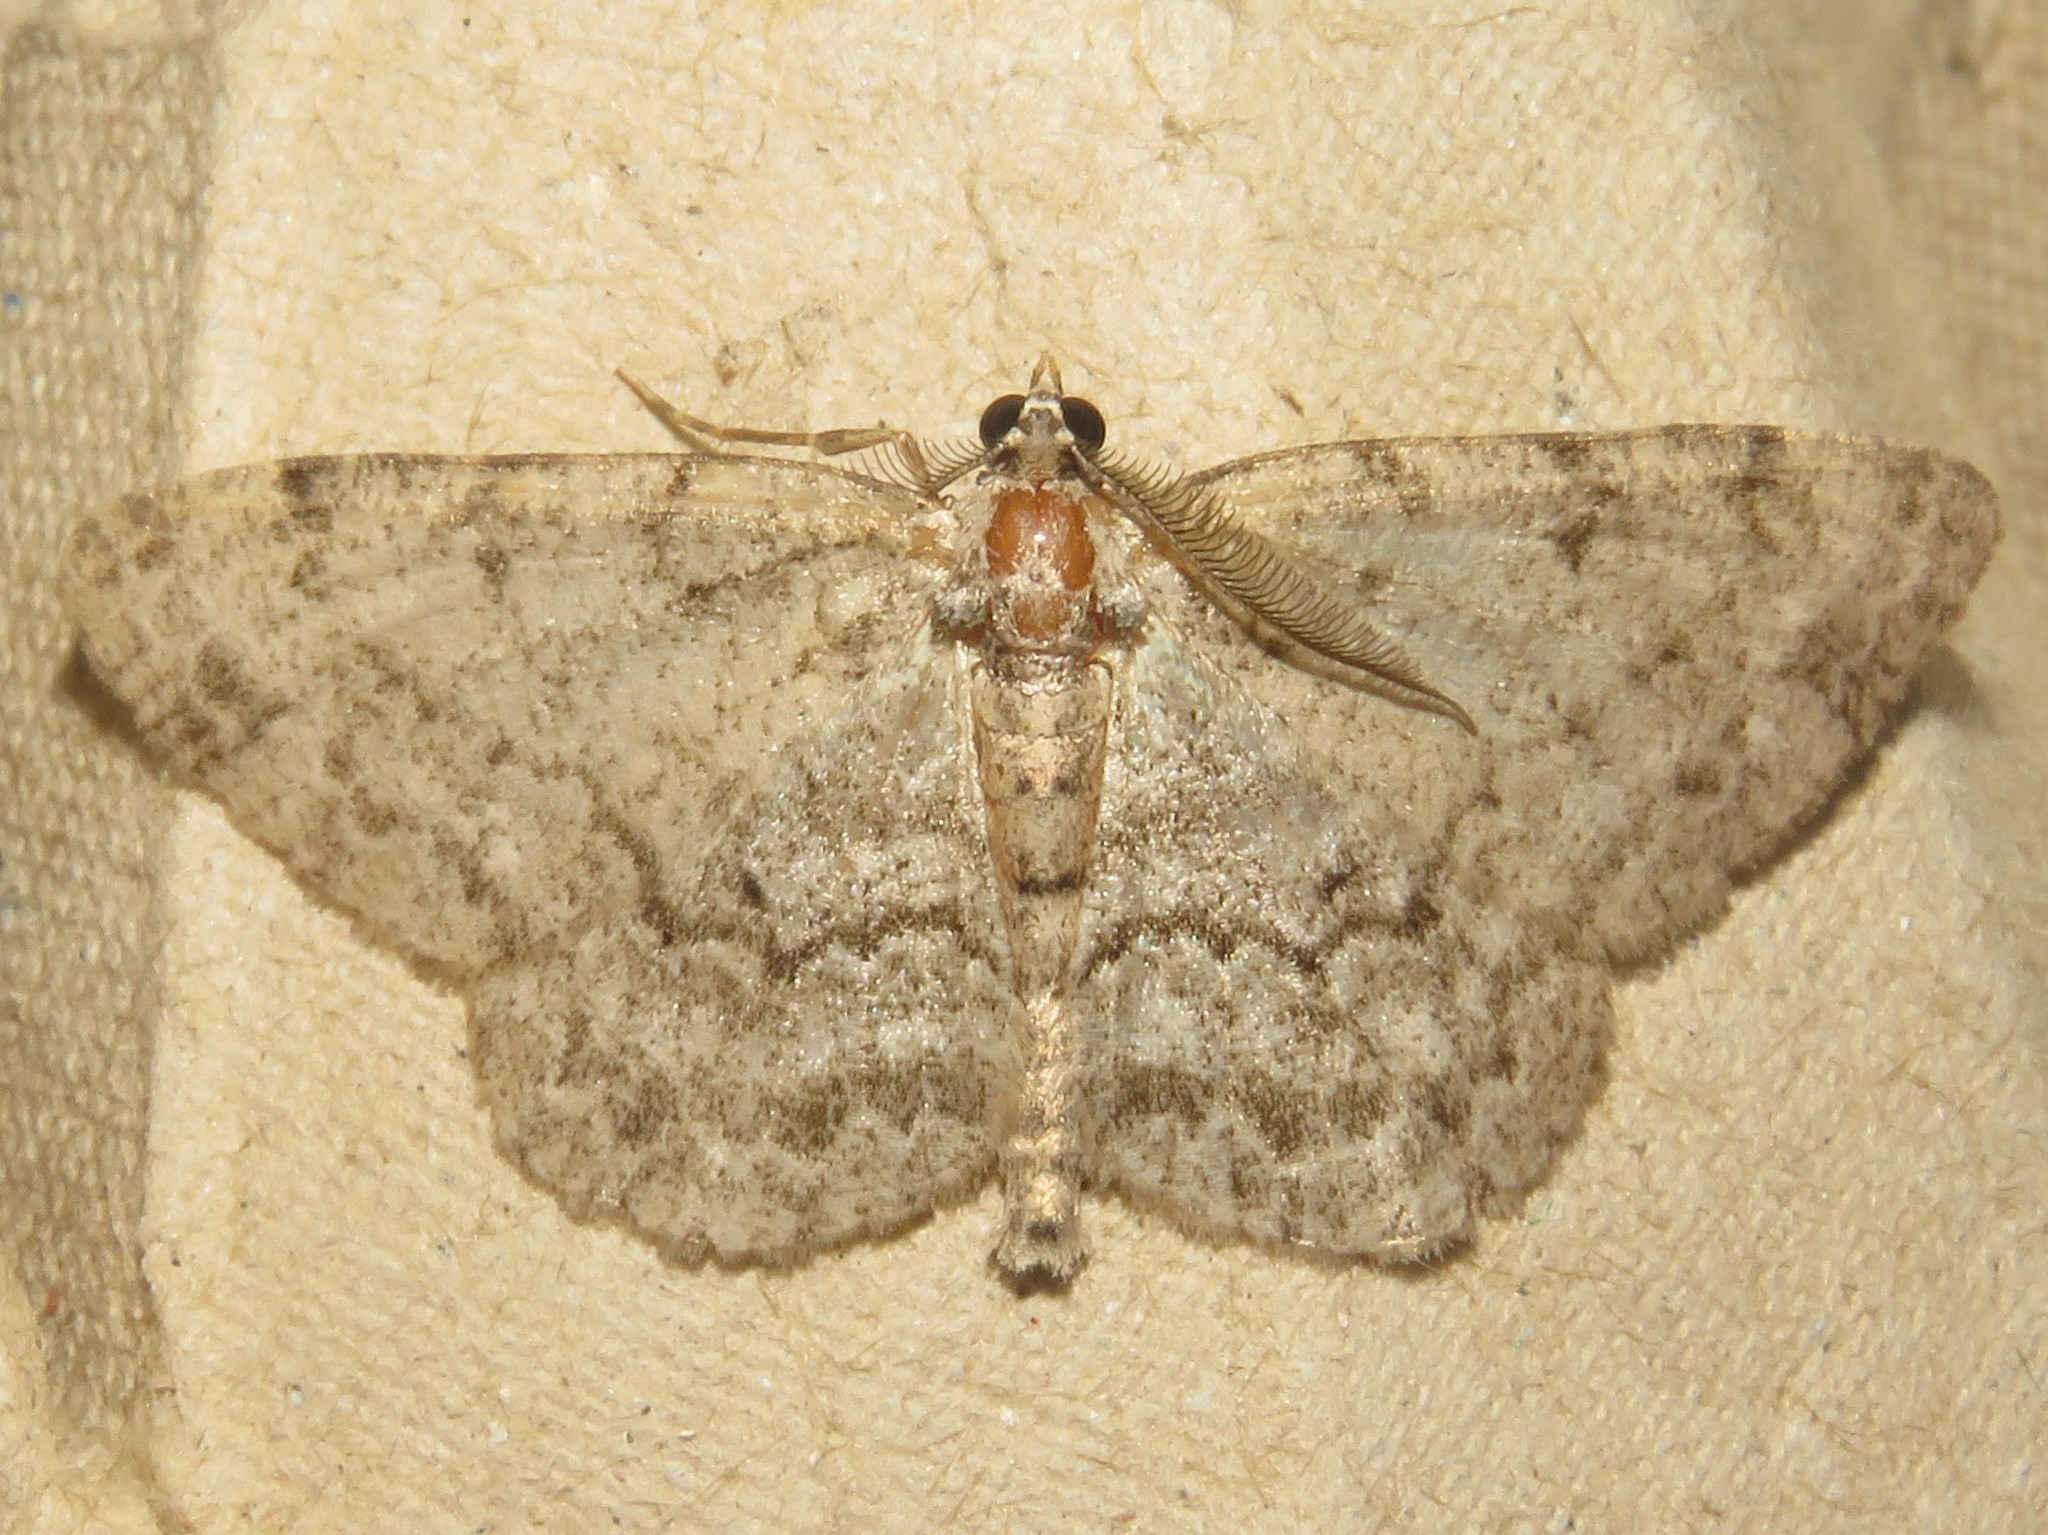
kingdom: Animalia
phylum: Arthropoda
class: Insecta
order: Lepidoptera
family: Geometridae
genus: Protoboarmia
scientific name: Protoboarmia porcelaria
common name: Porcelain gray
